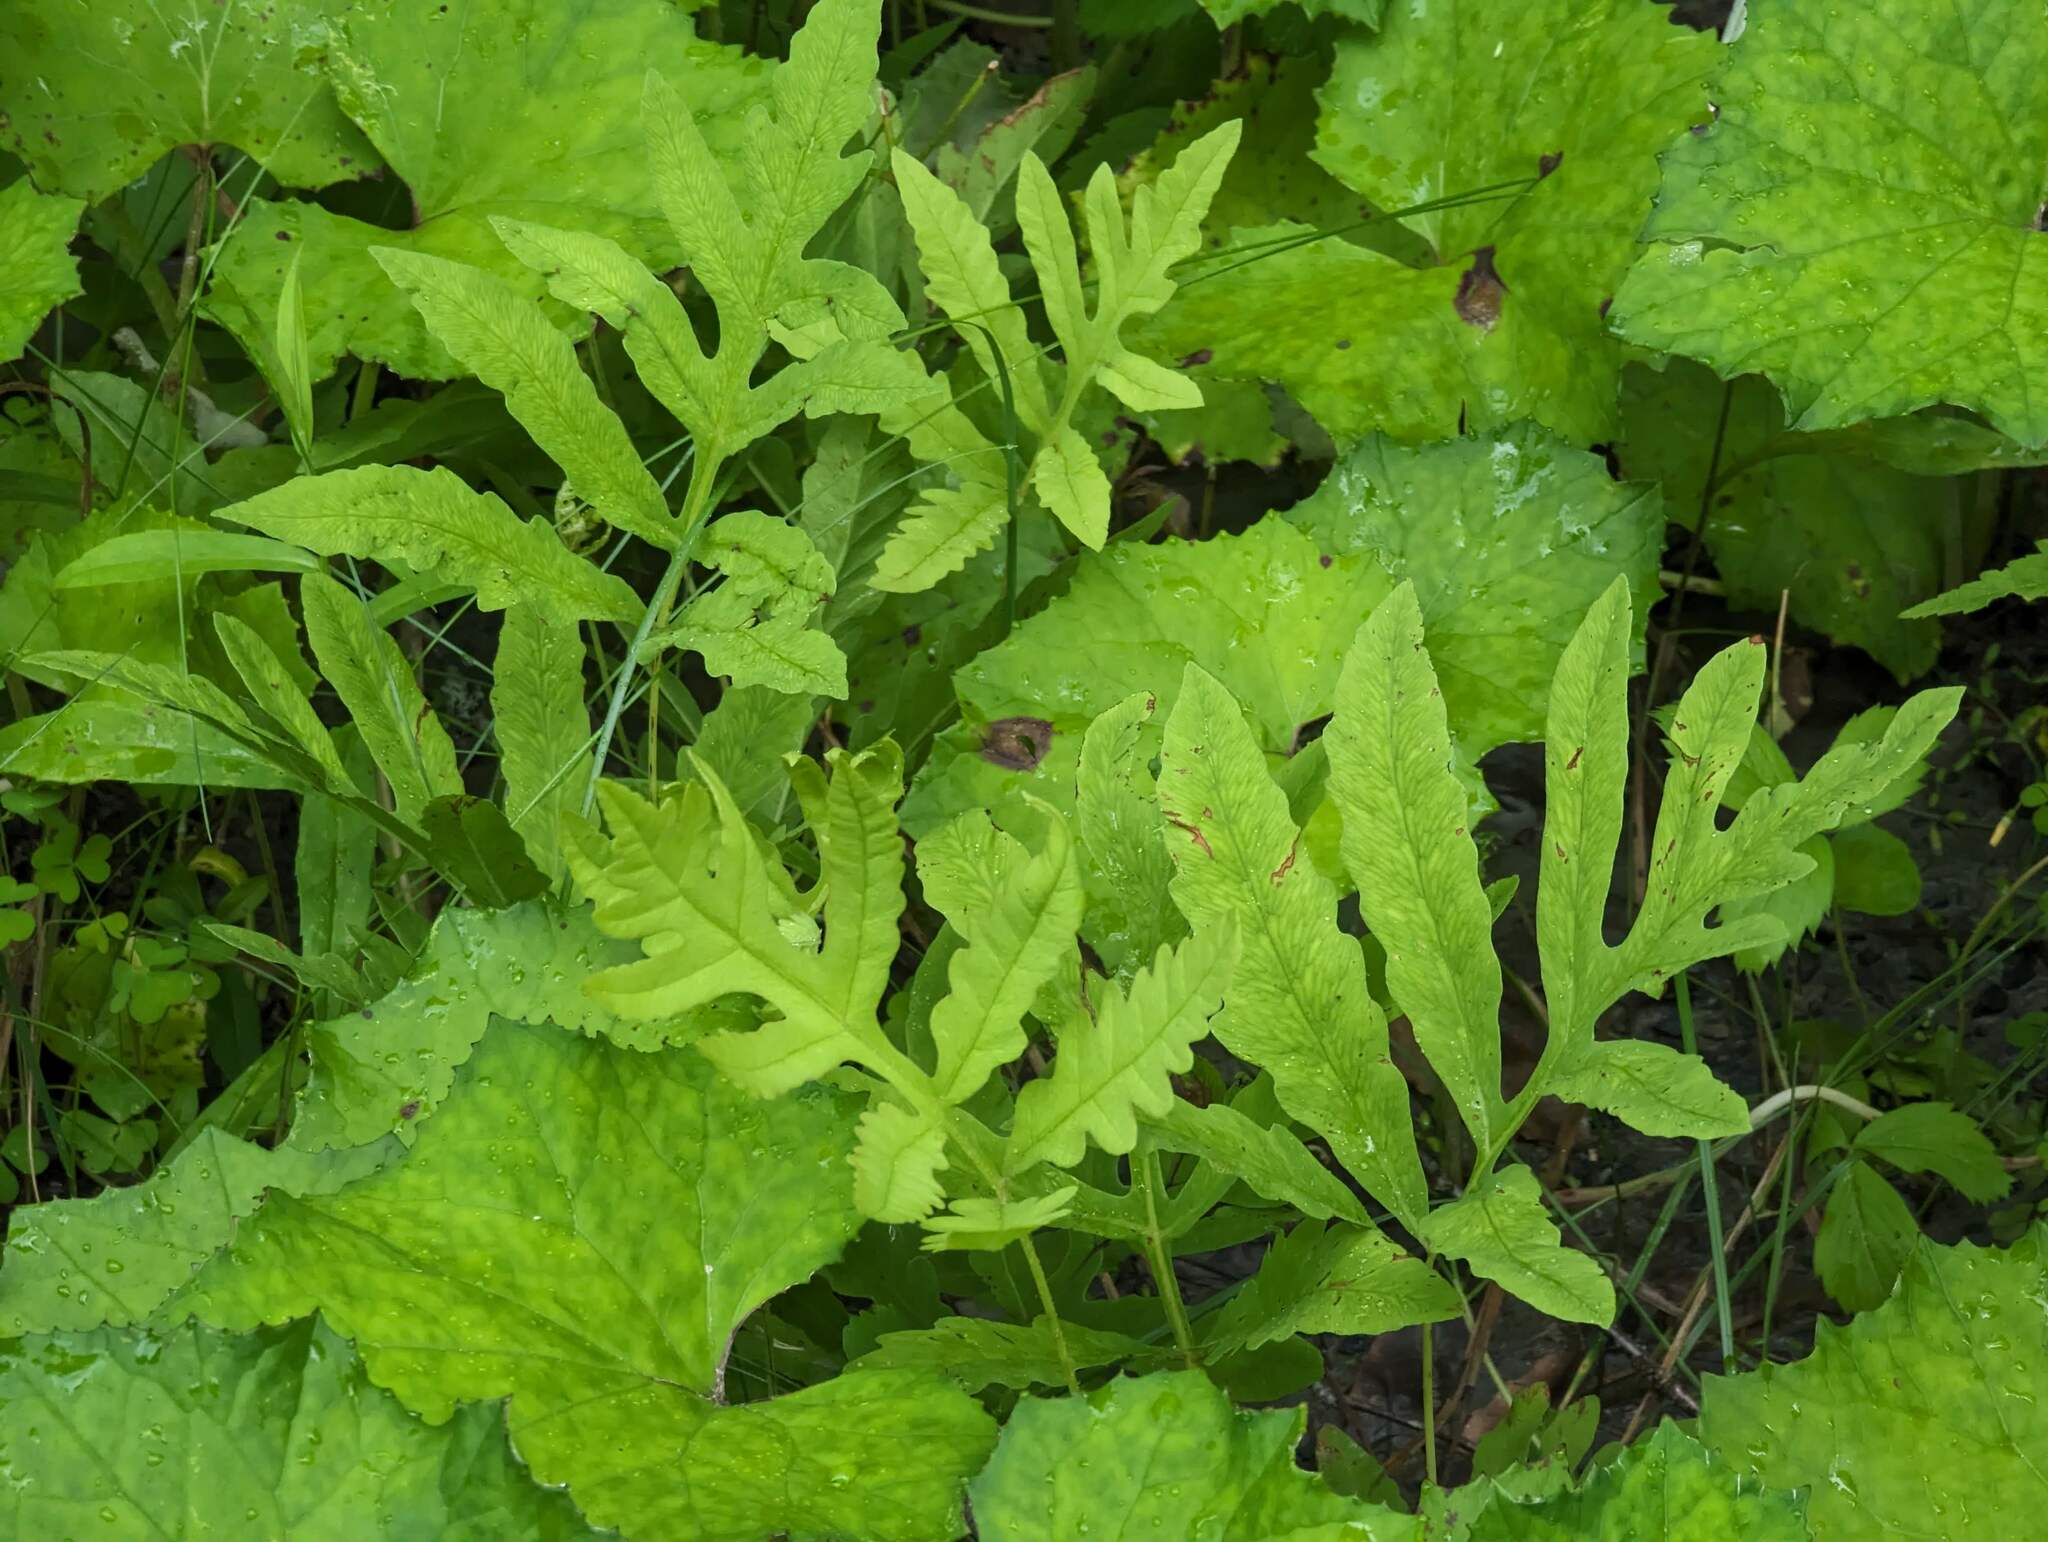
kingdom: Plantae
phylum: Tracheophyta
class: Polypodiopsida
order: Polypodiales
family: Onocleaceae
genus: Onoclea
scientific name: Onoclea sensibilis
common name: Sensitive fern
